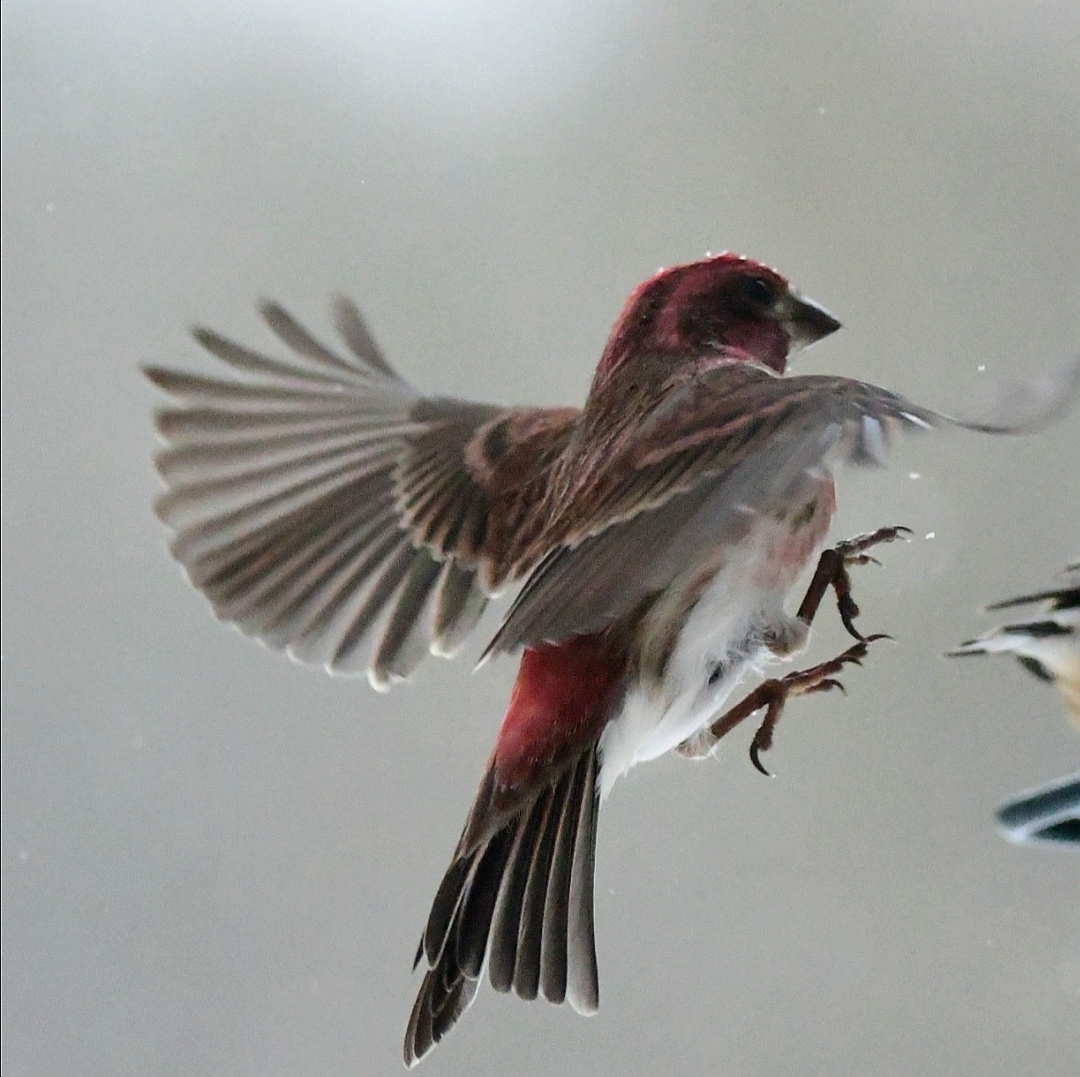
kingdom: Animalia
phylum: Chordata
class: Aves
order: Passeriformes
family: Fringillidae
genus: Haemorhous
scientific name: Haemorhous purpureus
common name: Purple finch
